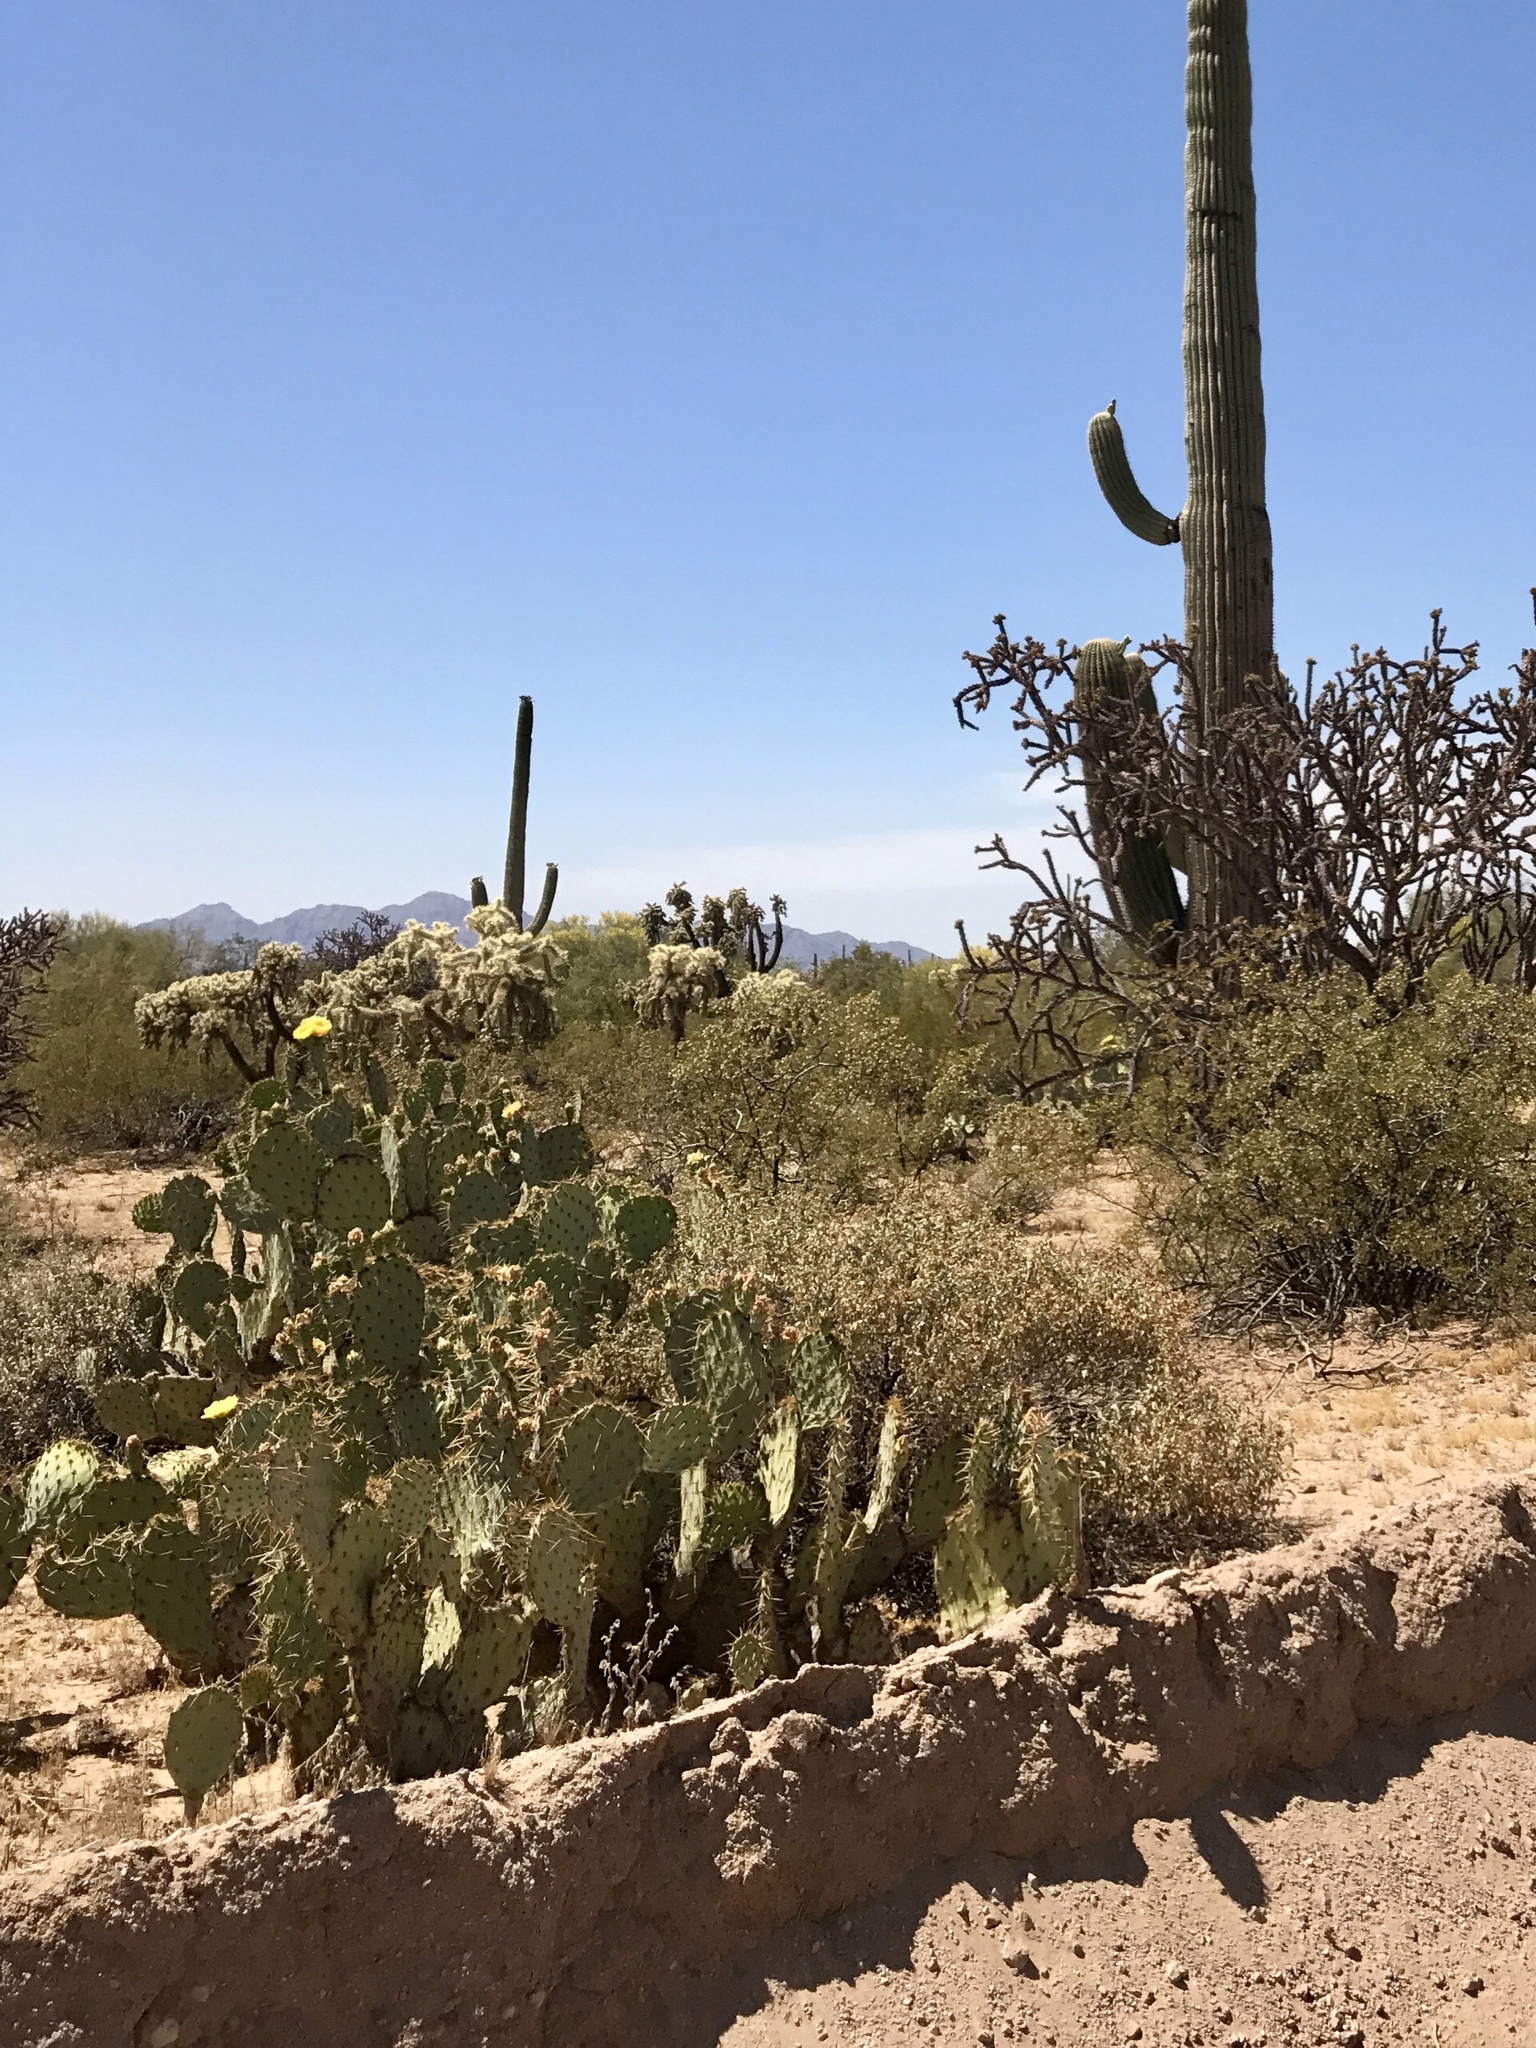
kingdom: Plantae
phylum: Tracheophyta
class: Magnoliopsida
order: Caryophyllales
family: Cactaceae
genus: Opuntia
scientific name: Opuntia engelmannii
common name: Cactus-apple
